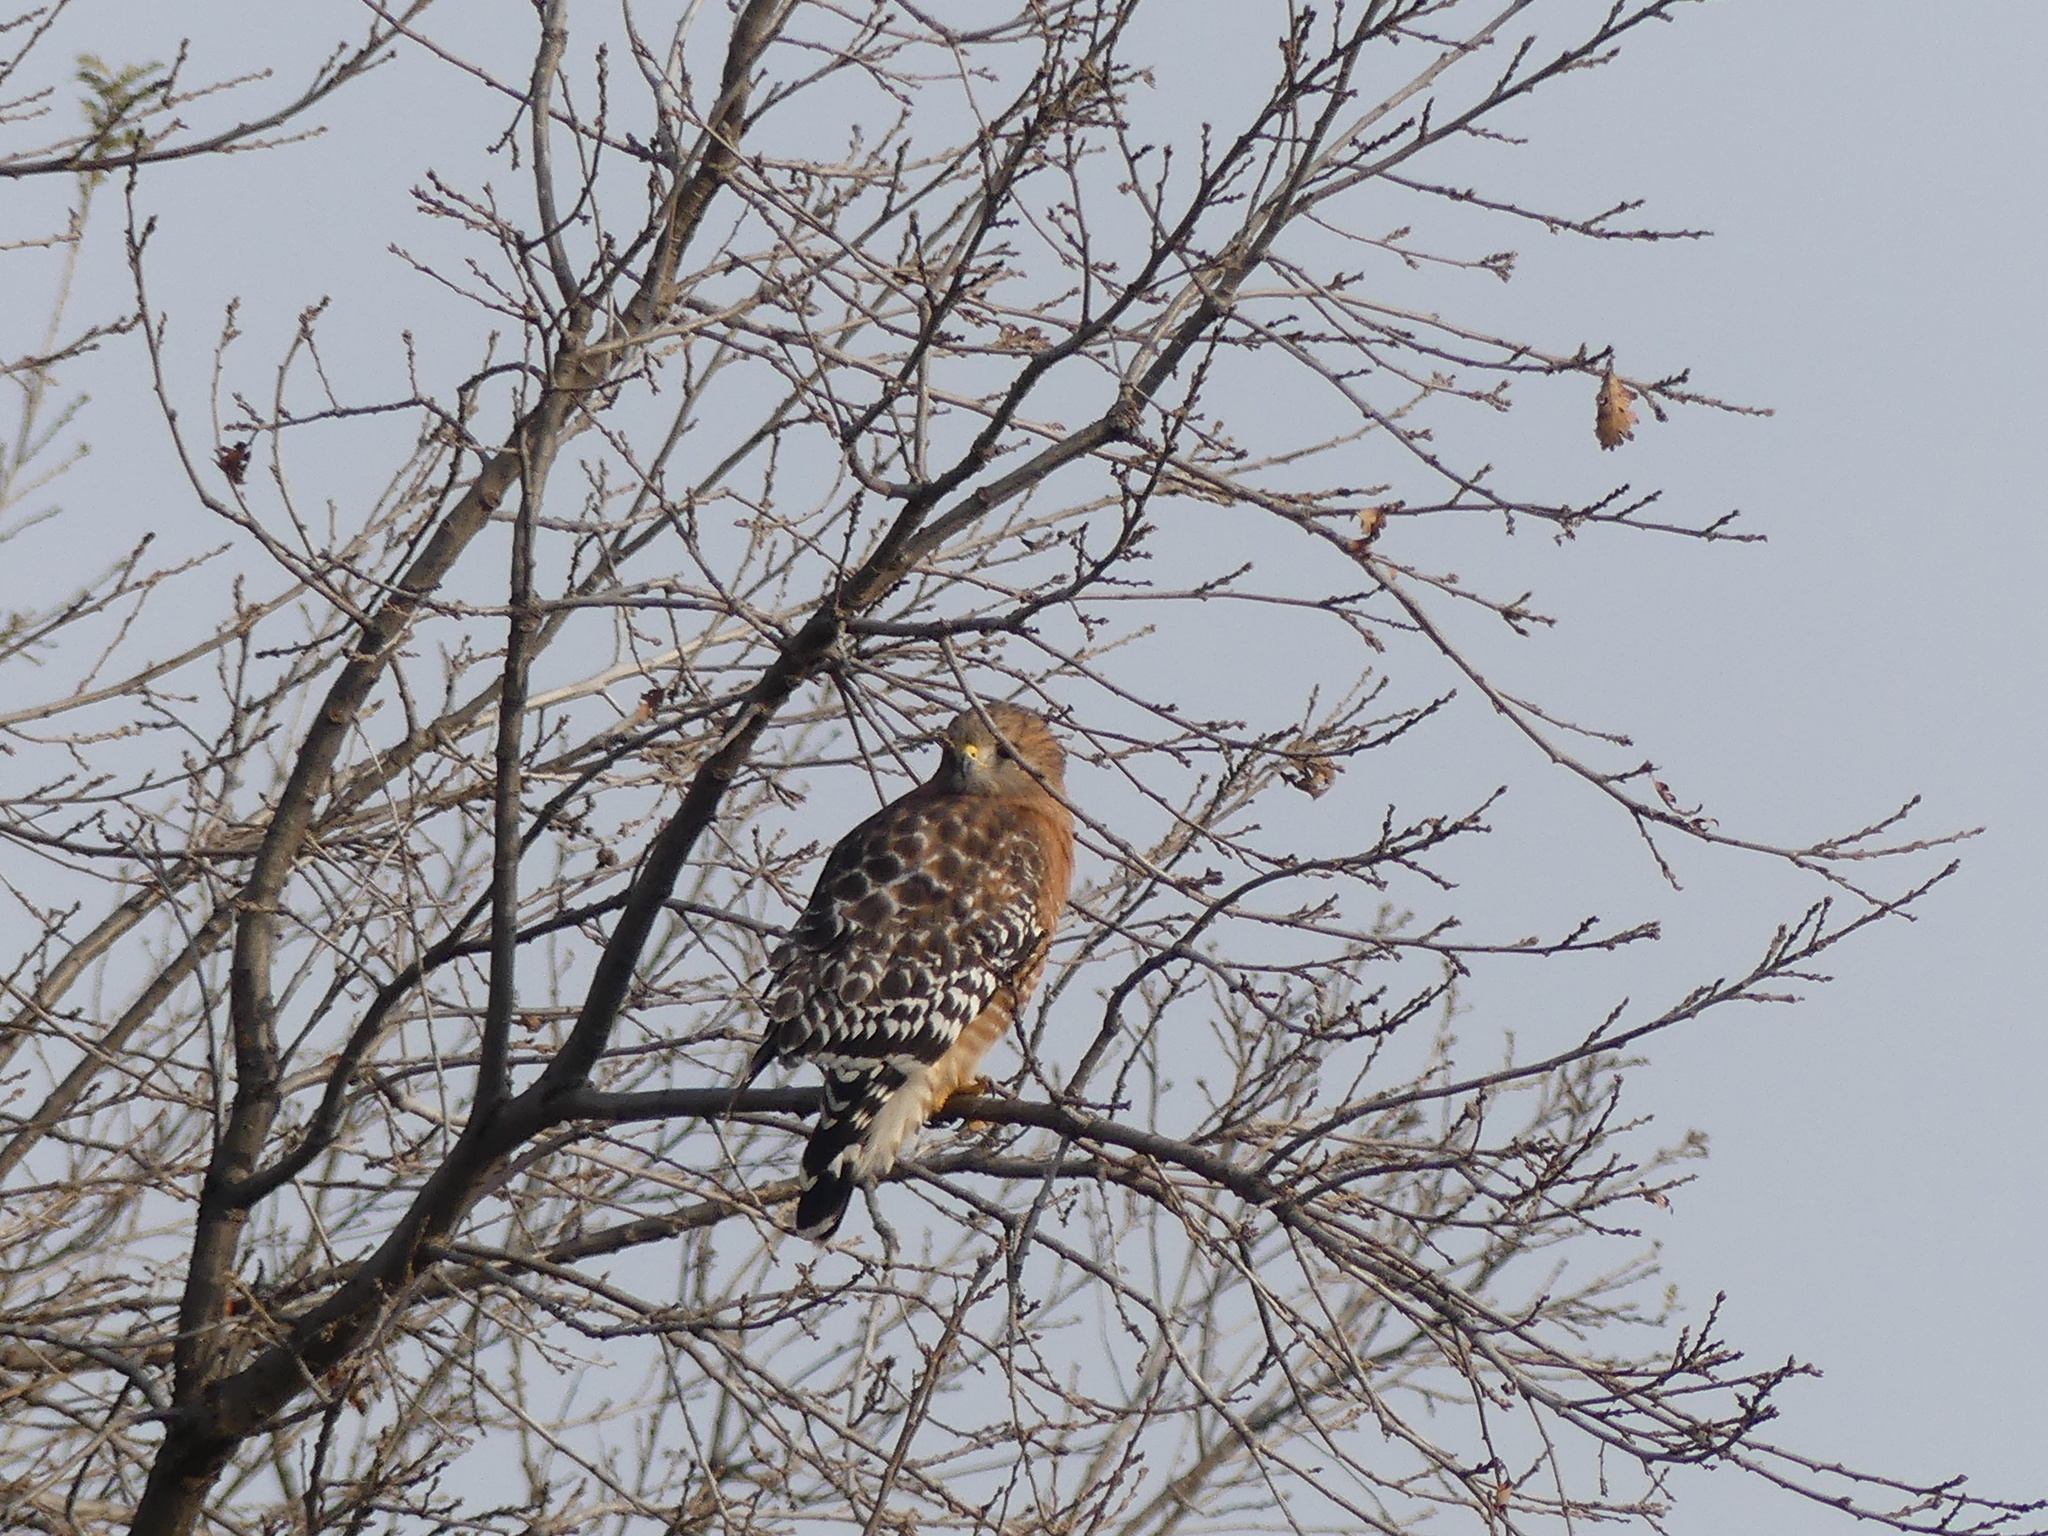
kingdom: Animalia
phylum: Chordata
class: Aves
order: Accipitriformes
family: Accipitridae
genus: Buteo
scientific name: Buteo lineatus
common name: Red-shouldered hawk
